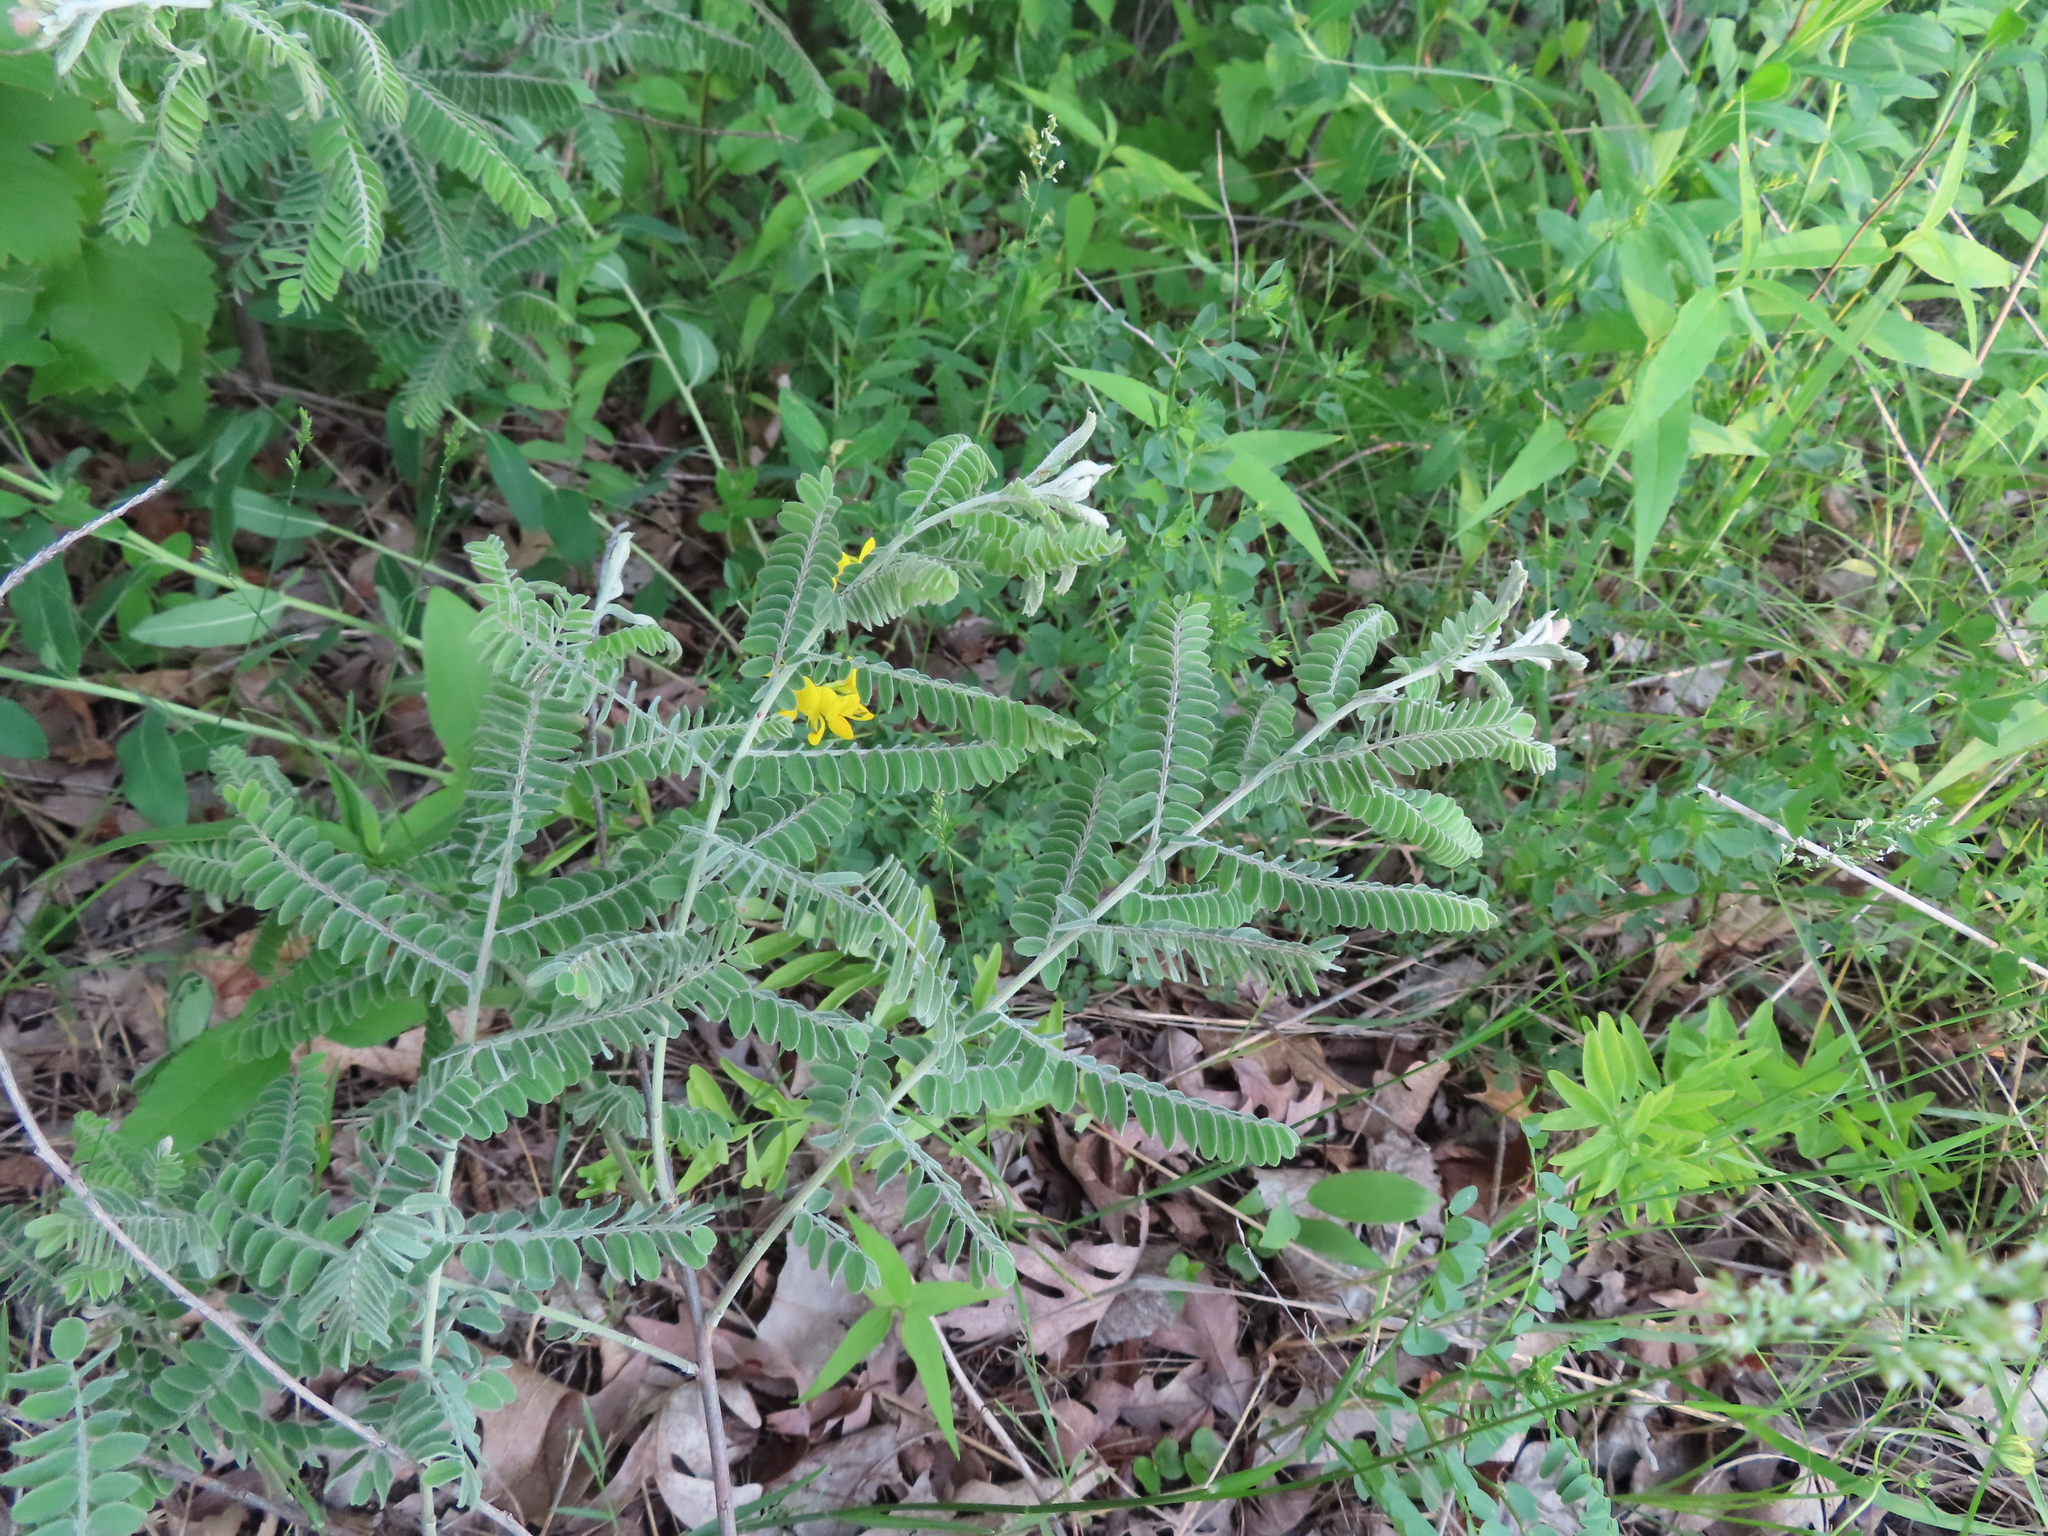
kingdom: Plantae
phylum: Tracheophyta
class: Magnoliopsida
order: Fabales
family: Fabaceae
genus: Amorpha
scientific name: Amorpha canescens
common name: Leadplant
